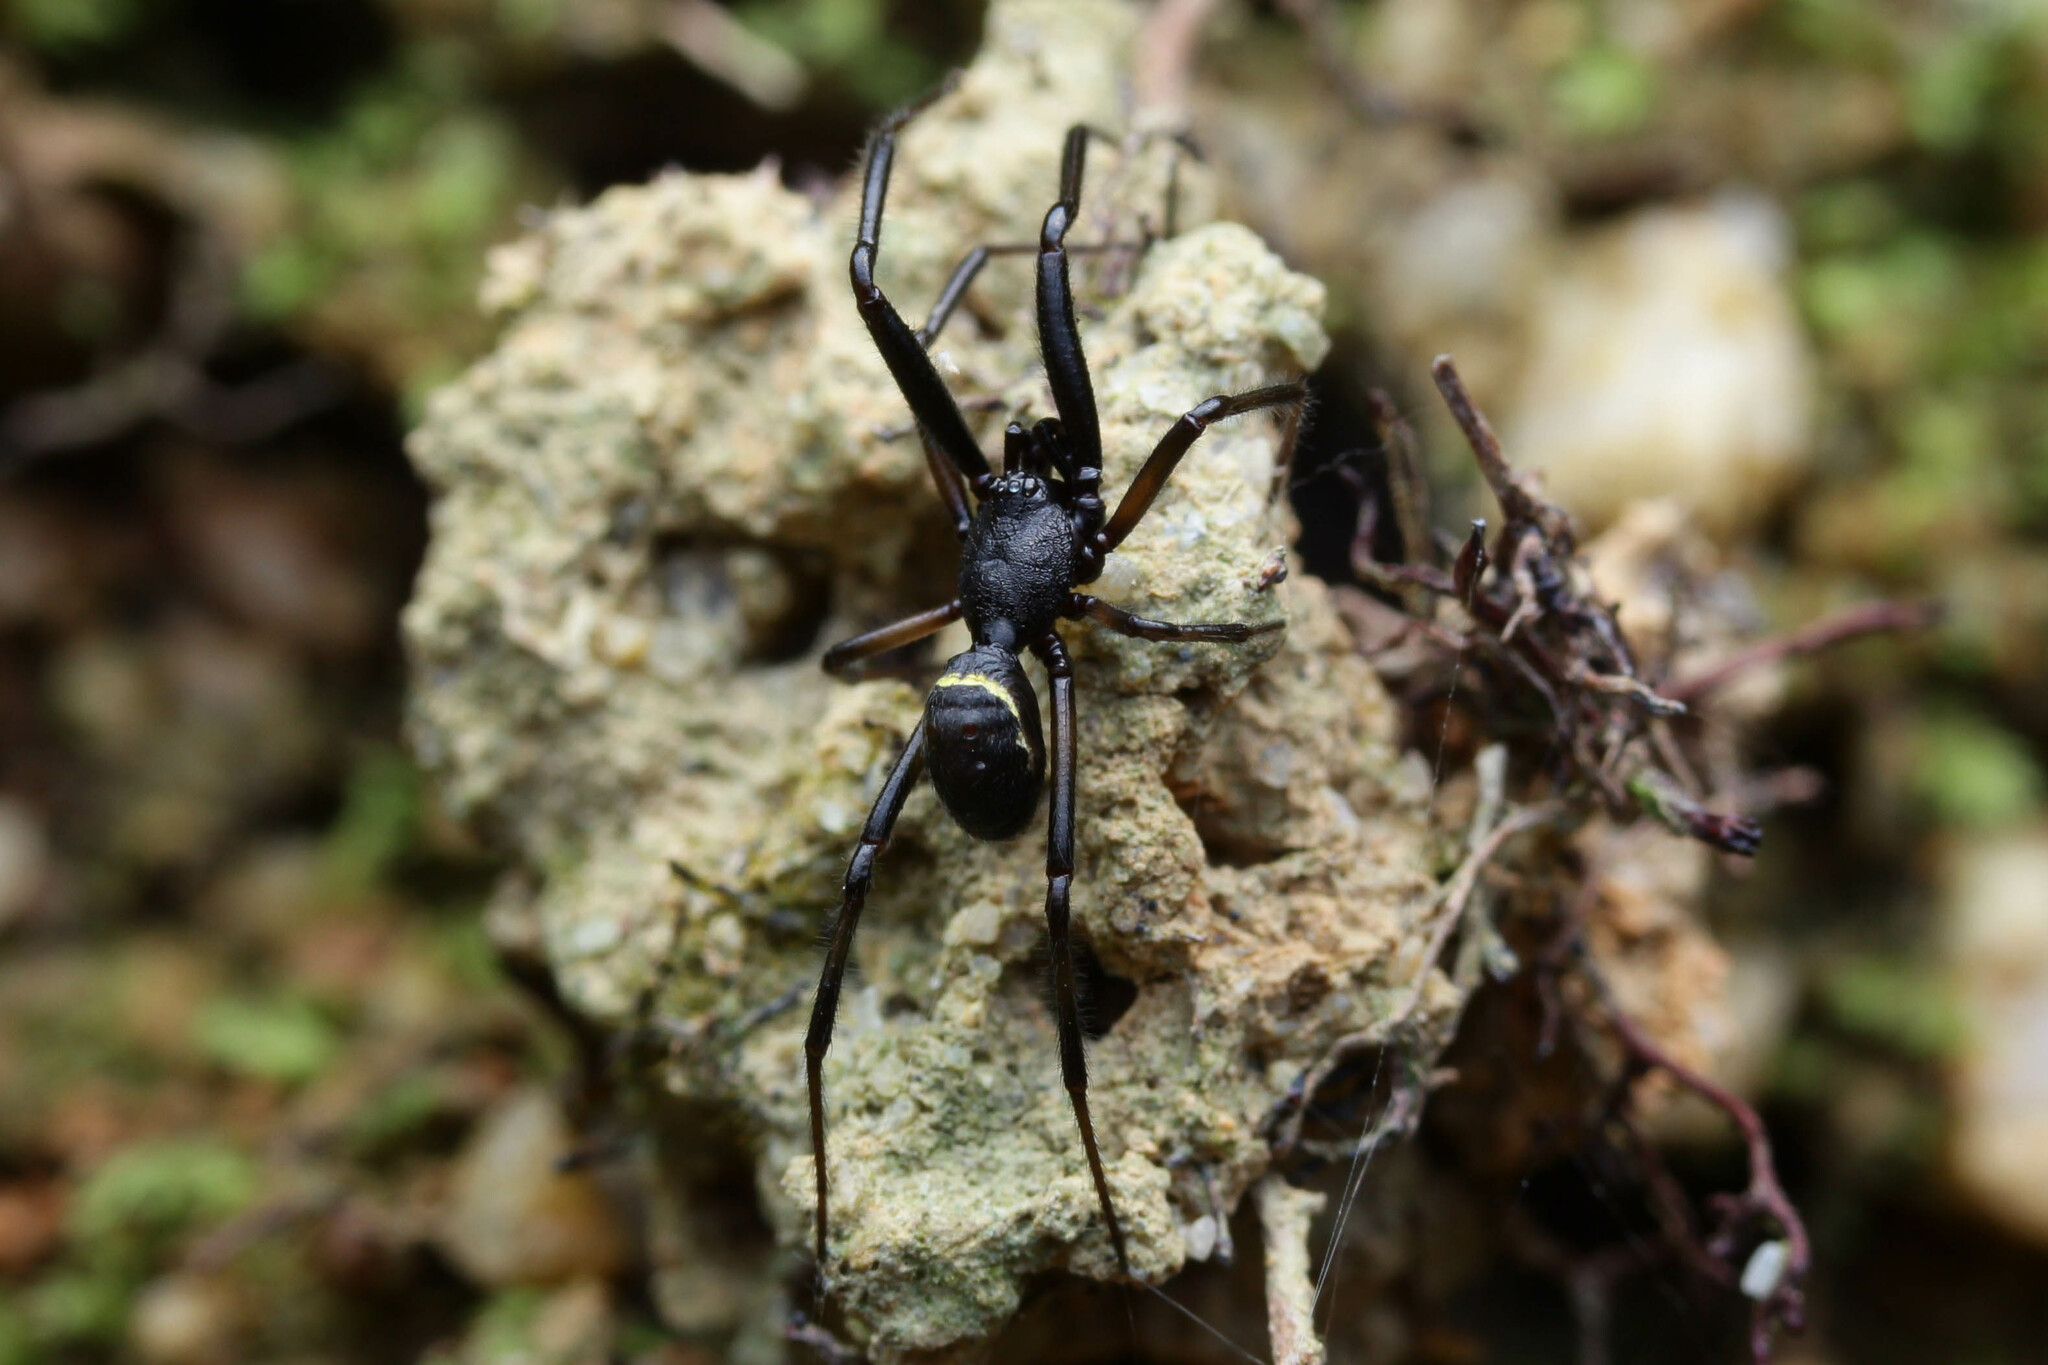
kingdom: Animalia
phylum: Arthropoda
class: Arachnida
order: Araneae
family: Theridiidae
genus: Steatoda
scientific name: Steatoda cingulata
